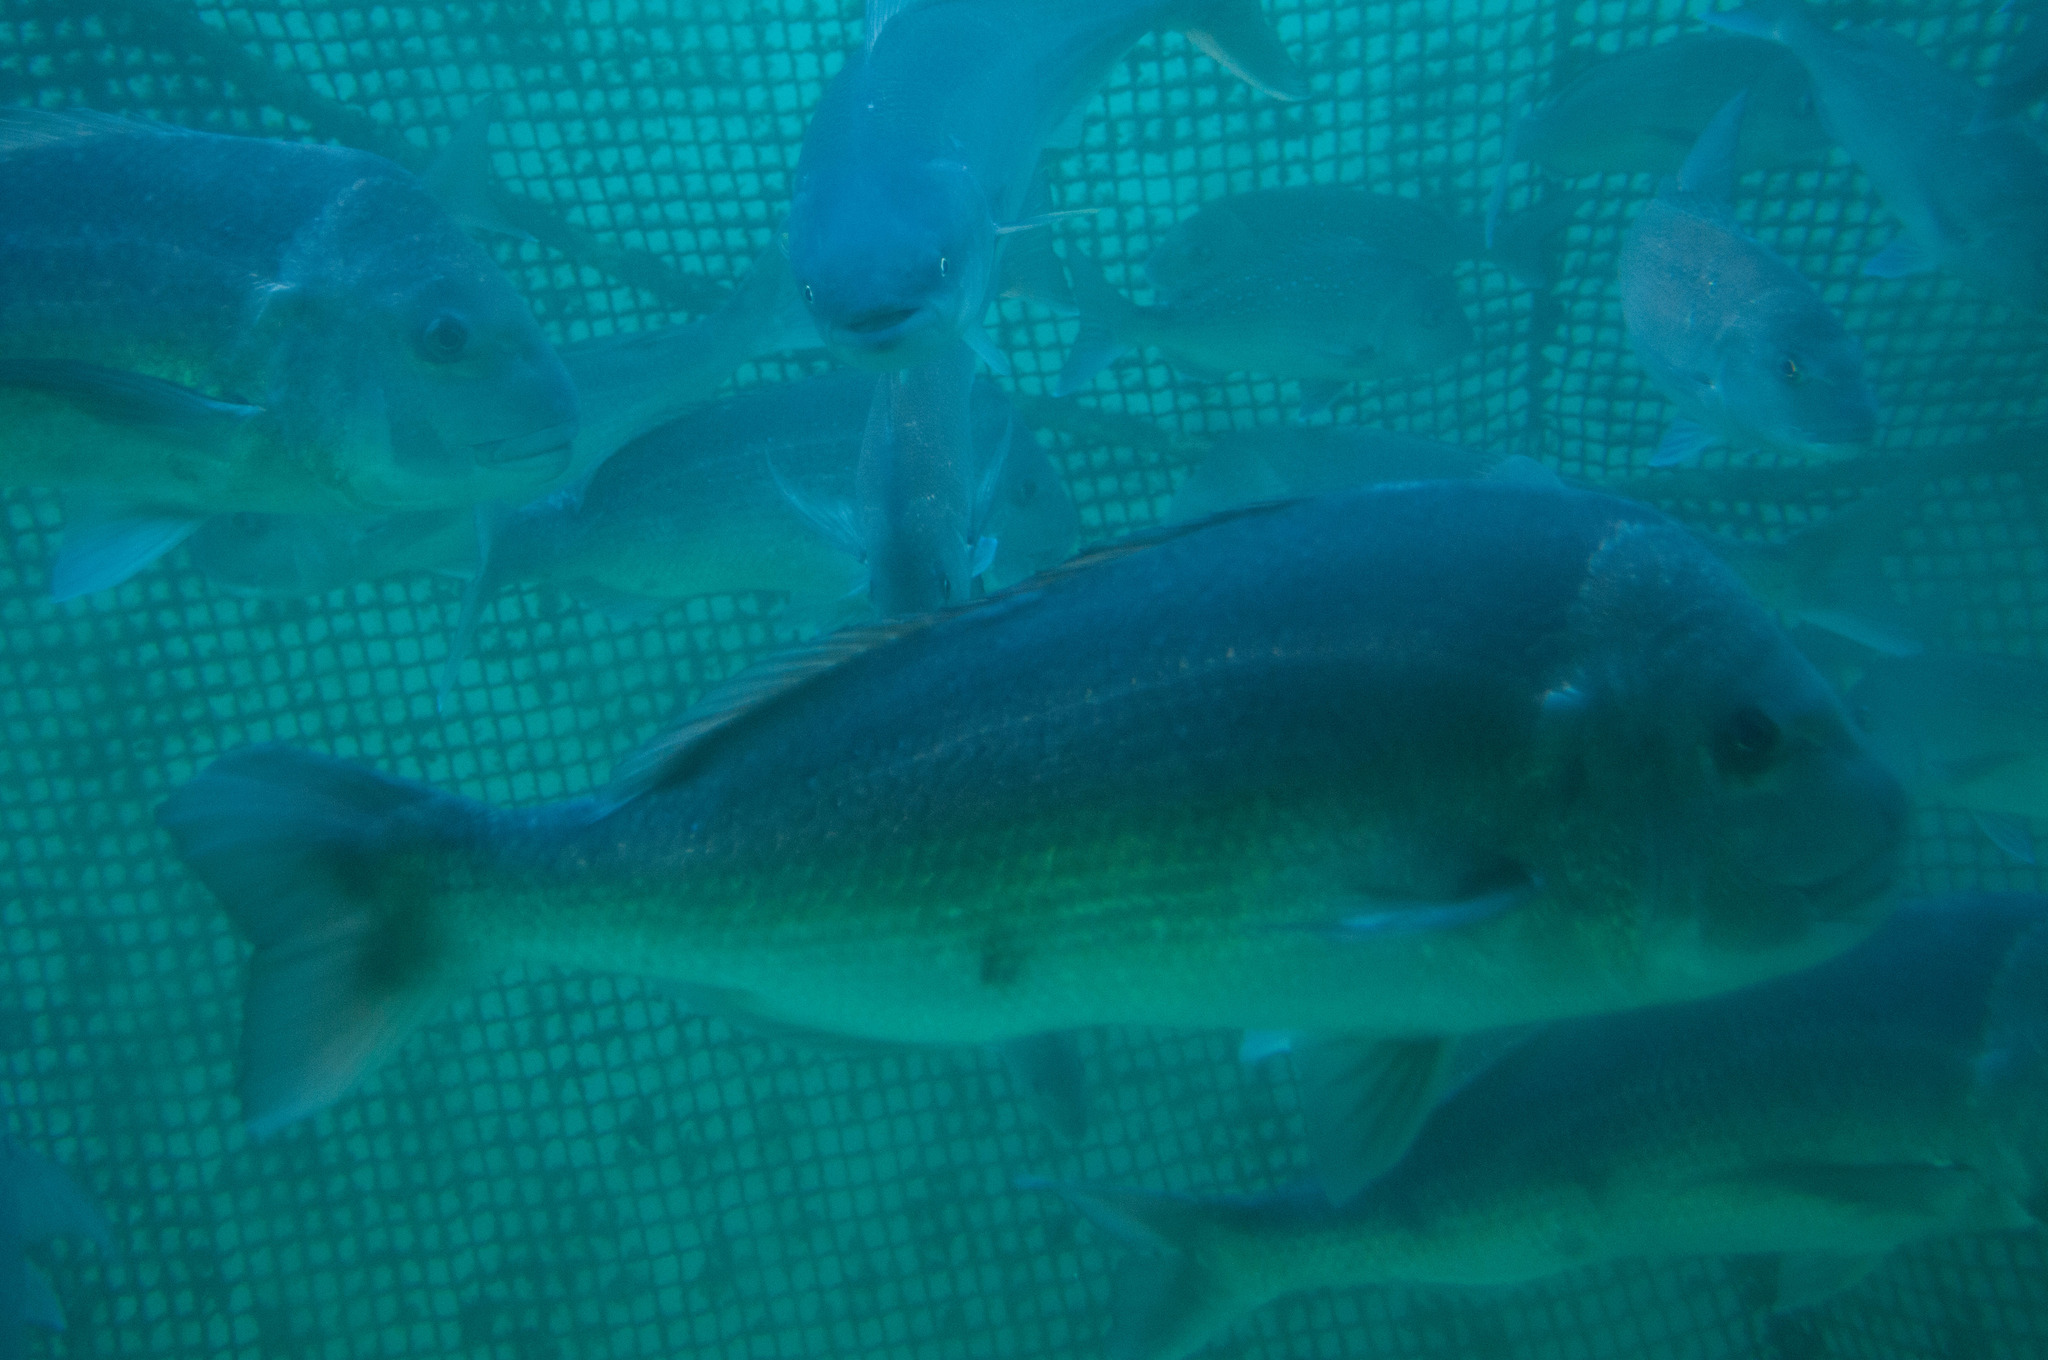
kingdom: Animalia
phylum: Chordata
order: Perciformes
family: Sparidae
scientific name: Sparidae
